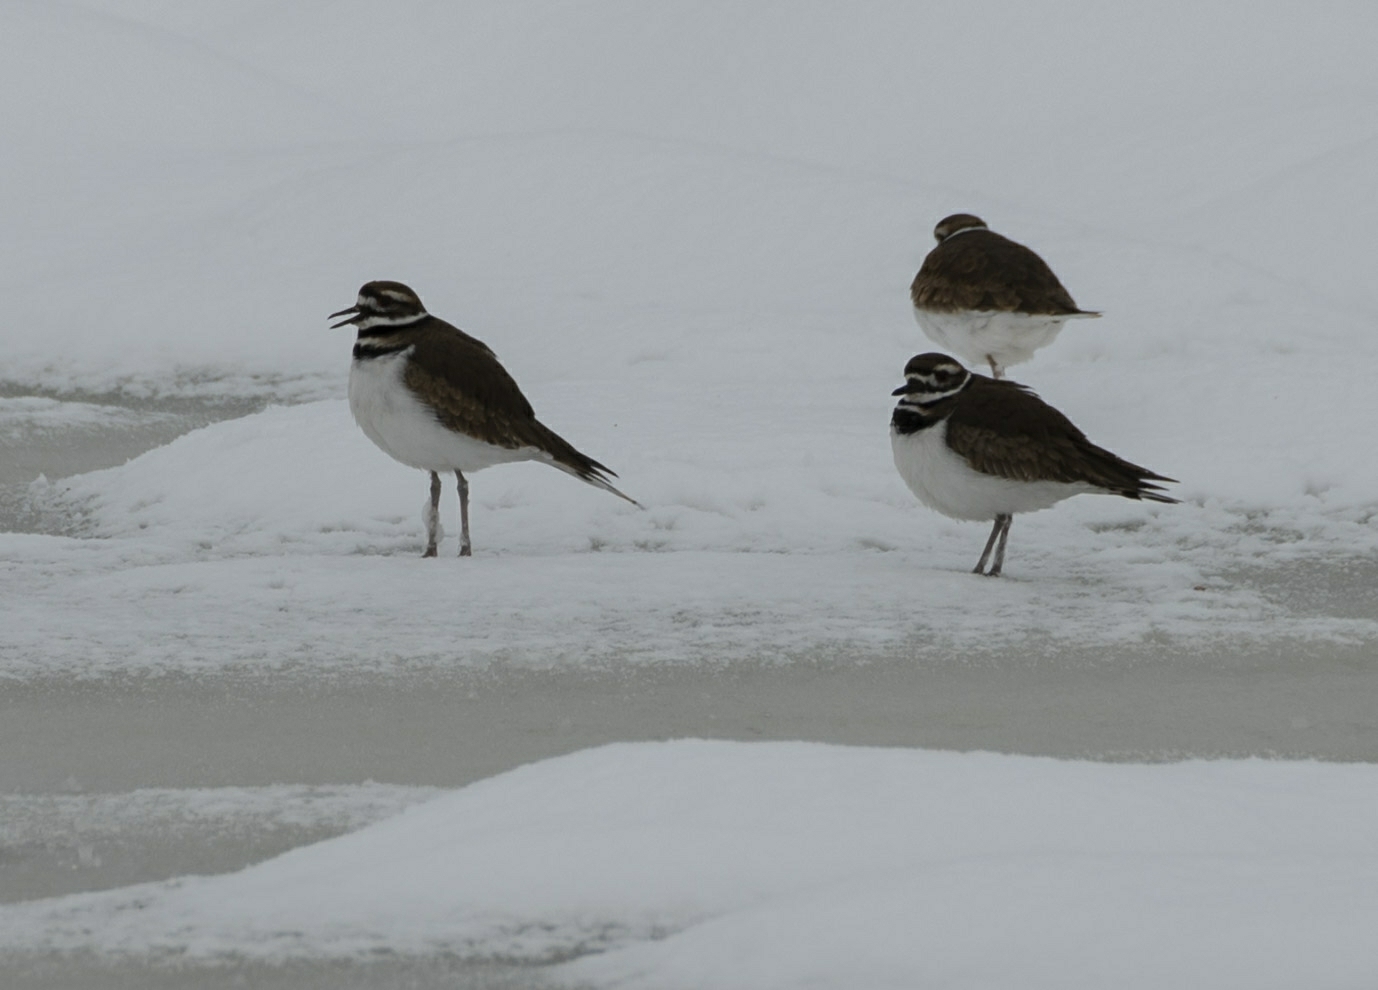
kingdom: Animalia
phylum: Chordata
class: Aves
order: Charadriiformes
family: Charadriidae
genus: Charadrius
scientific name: Charadrius vociferus
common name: Killdeer
